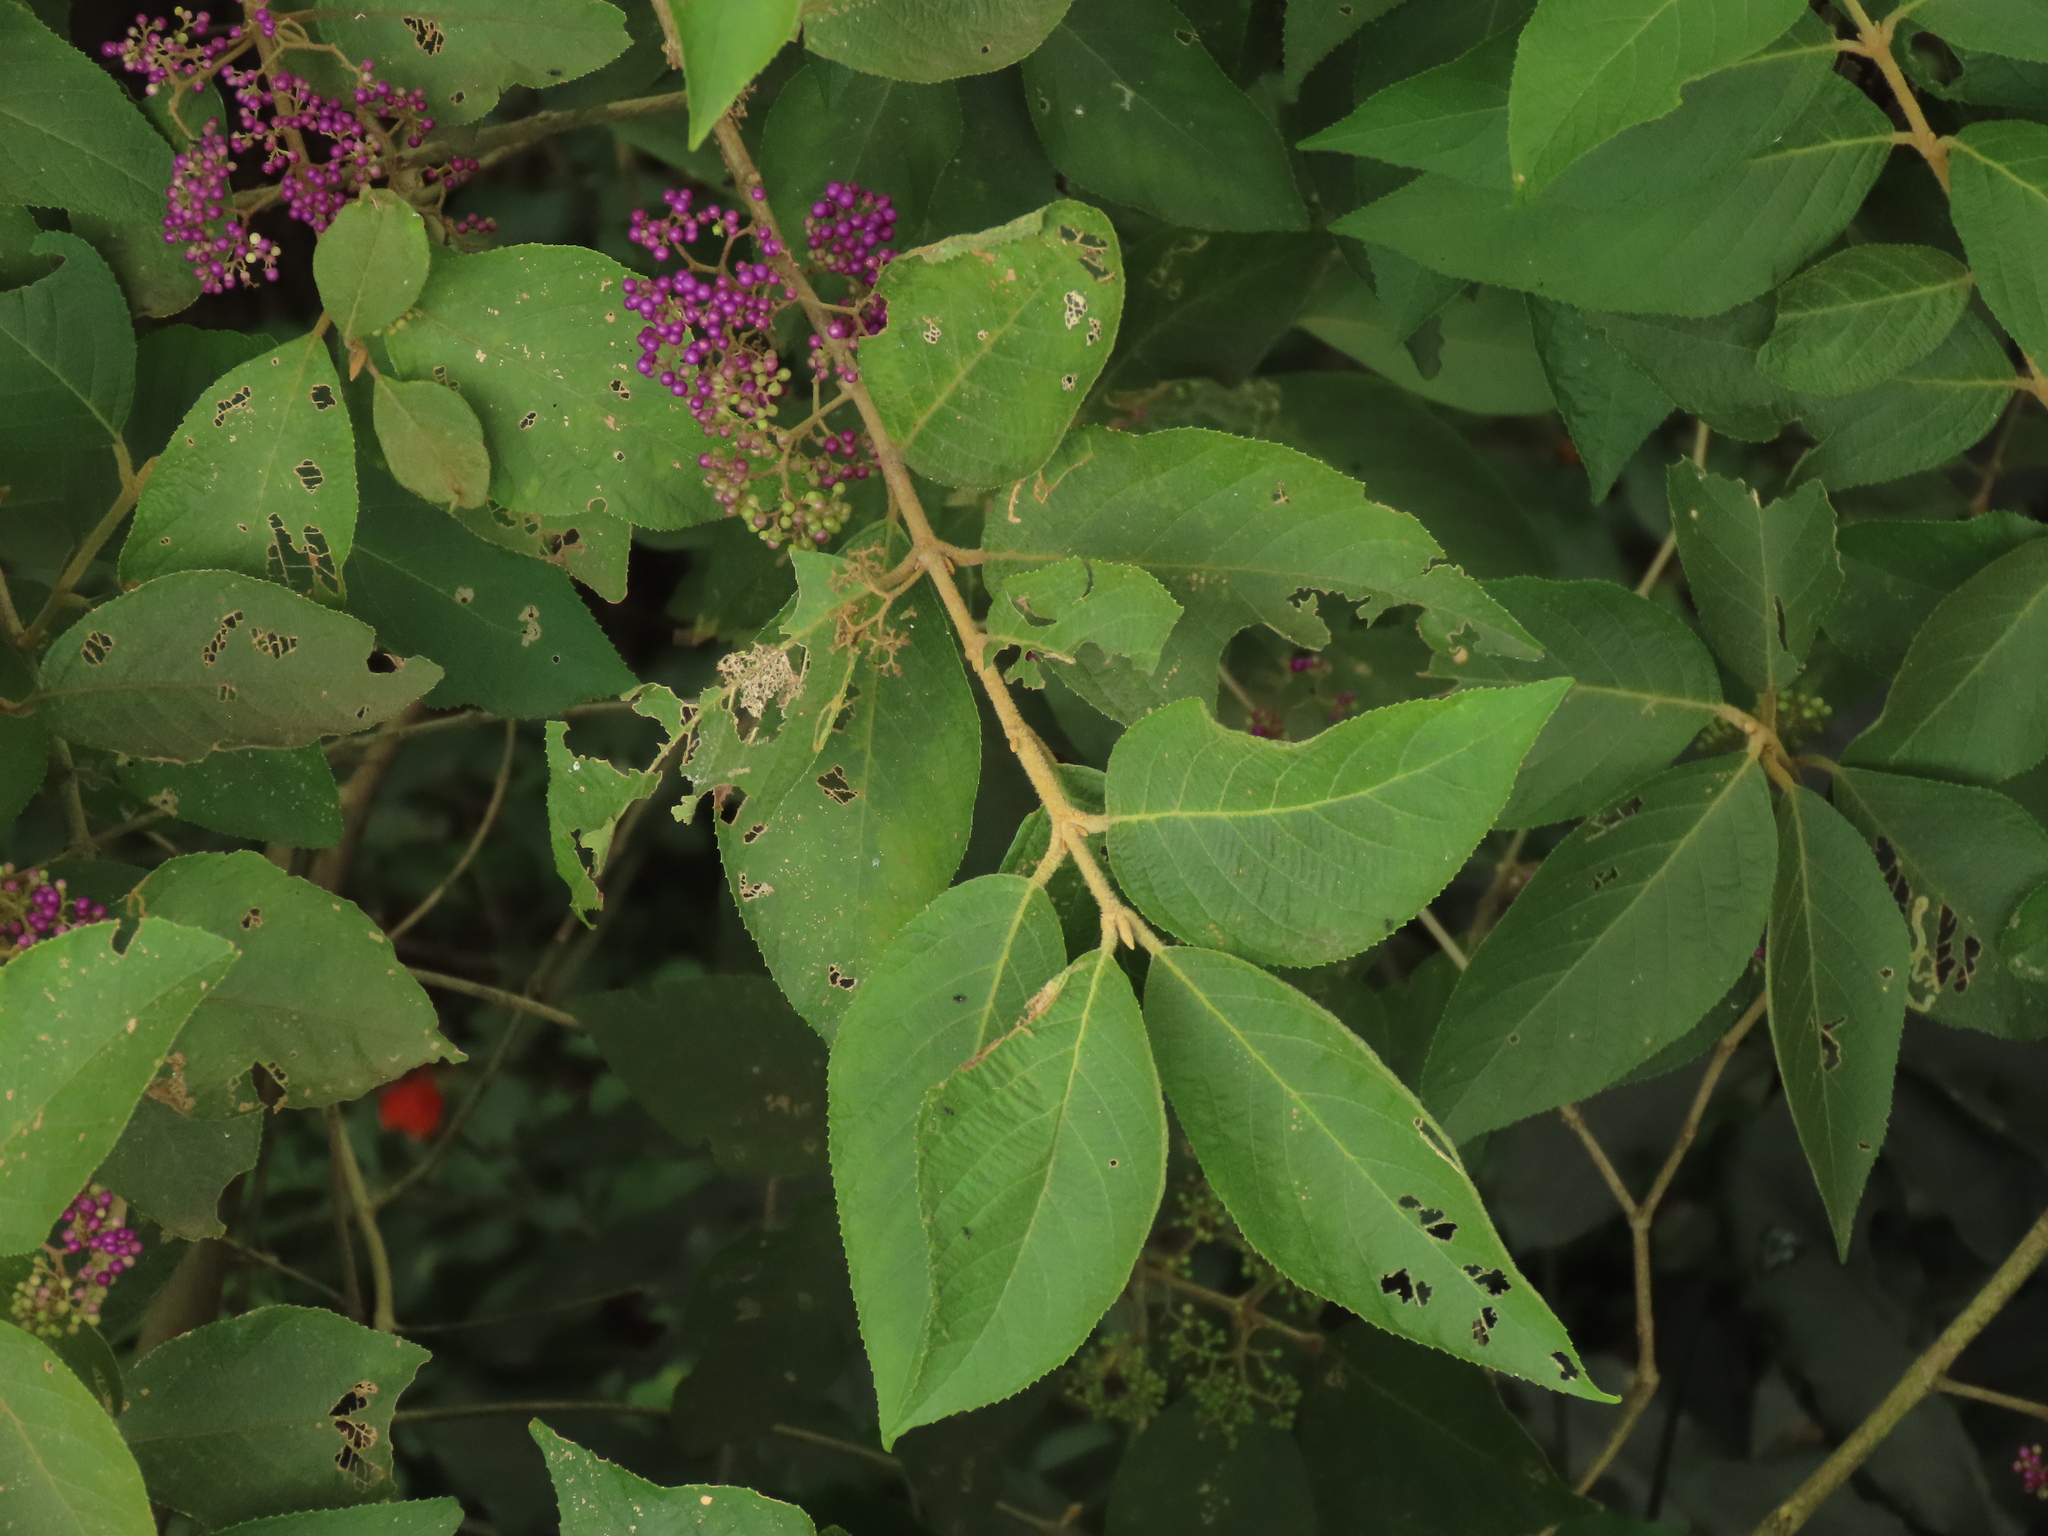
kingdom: Plantae
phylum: Tracheophyta
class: Magnoliopsida
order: Lamiales
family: Lamiaceae
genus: Callicarpa
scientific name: Callicarpa pedunculata
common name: Velvetleaf
